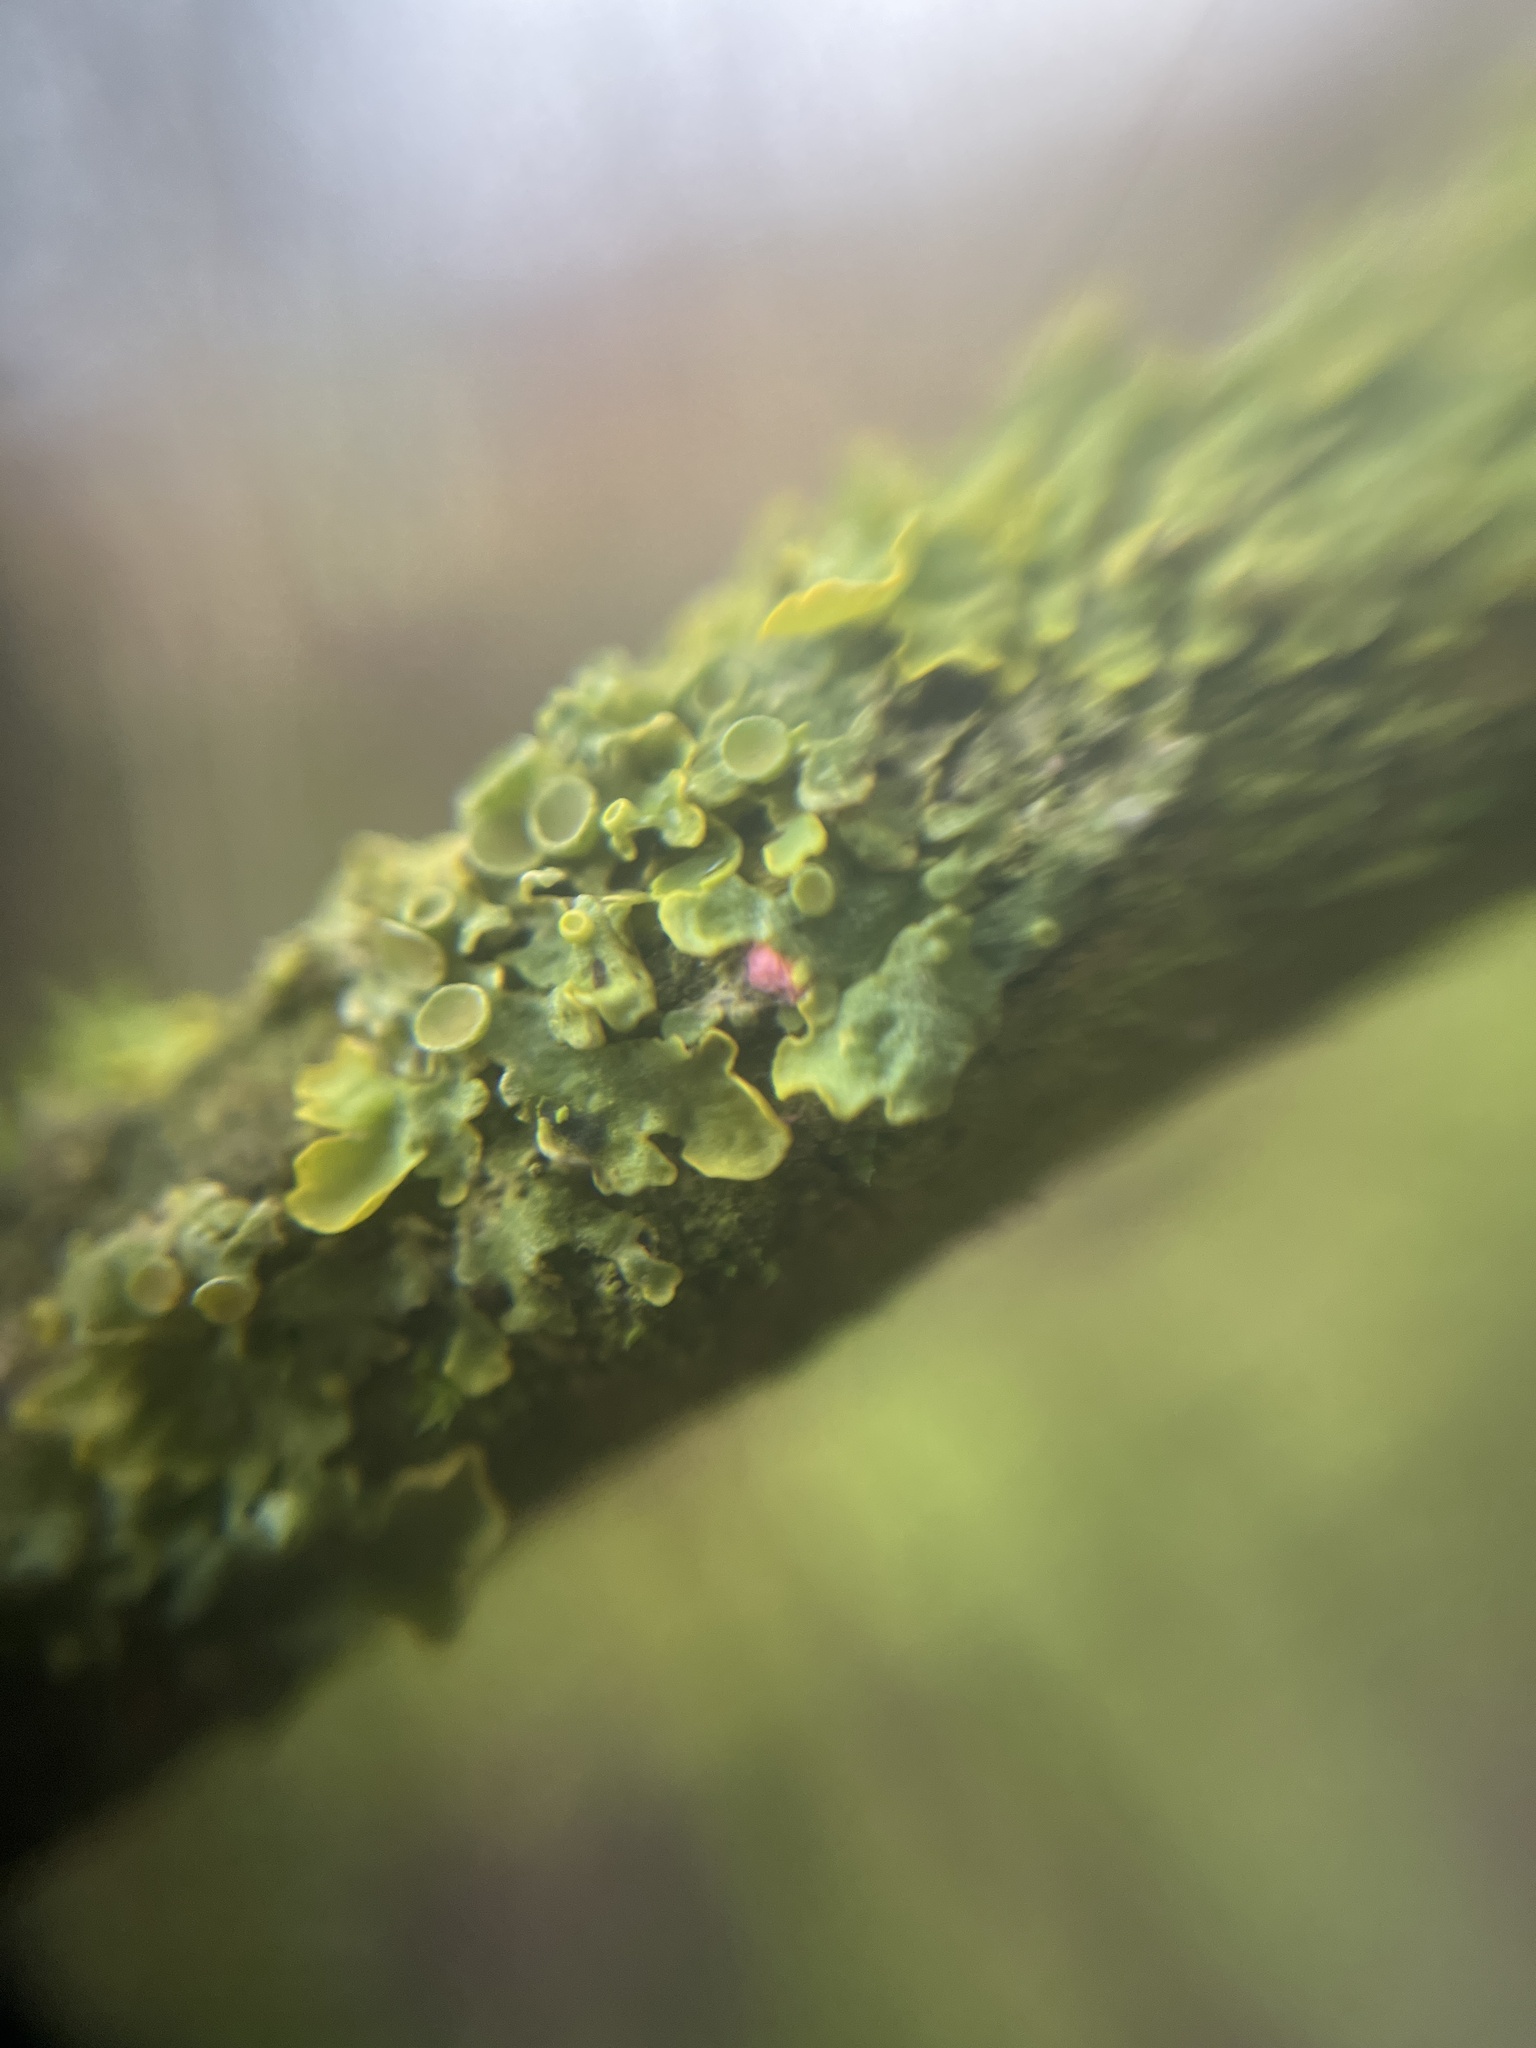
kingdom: Fungi
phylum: Ascomycota
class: Sordariomycetes
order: Hypocreales
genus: Illosporiopsis
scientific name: Illosporiopsis christiansenii
